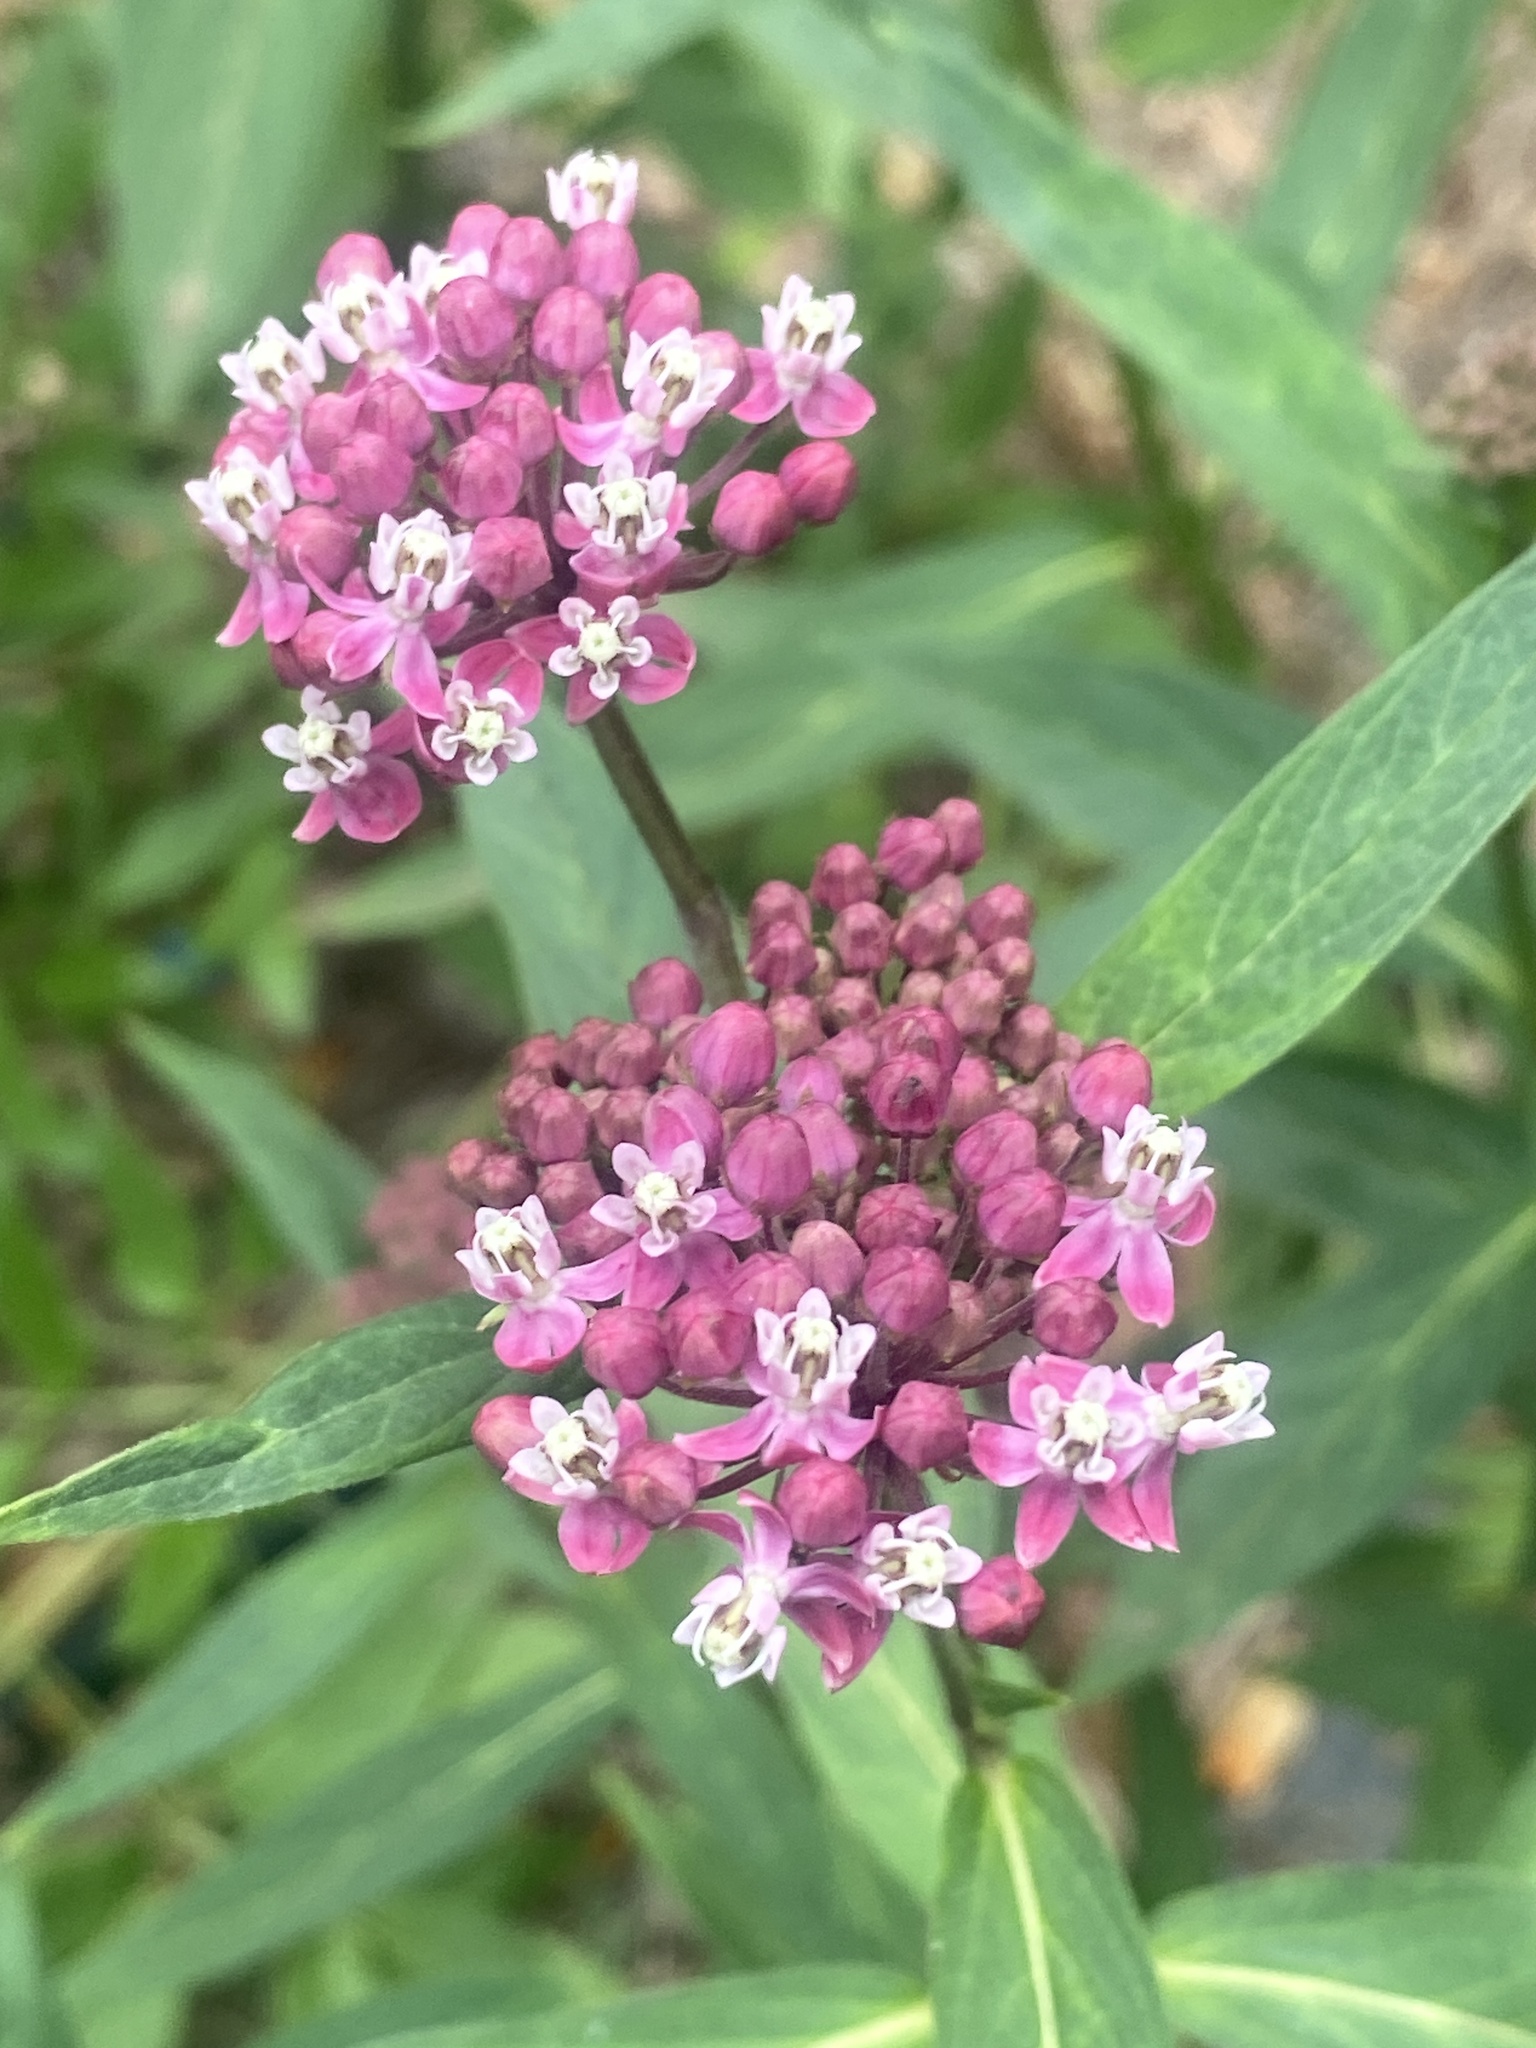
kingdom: Plantae
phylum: Tracheophyta
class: Magnoliopsida
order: Gentianales
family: Apocynaceae
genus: Asclepias
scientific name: Asclepias incarnata
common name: Swamp milkweed
